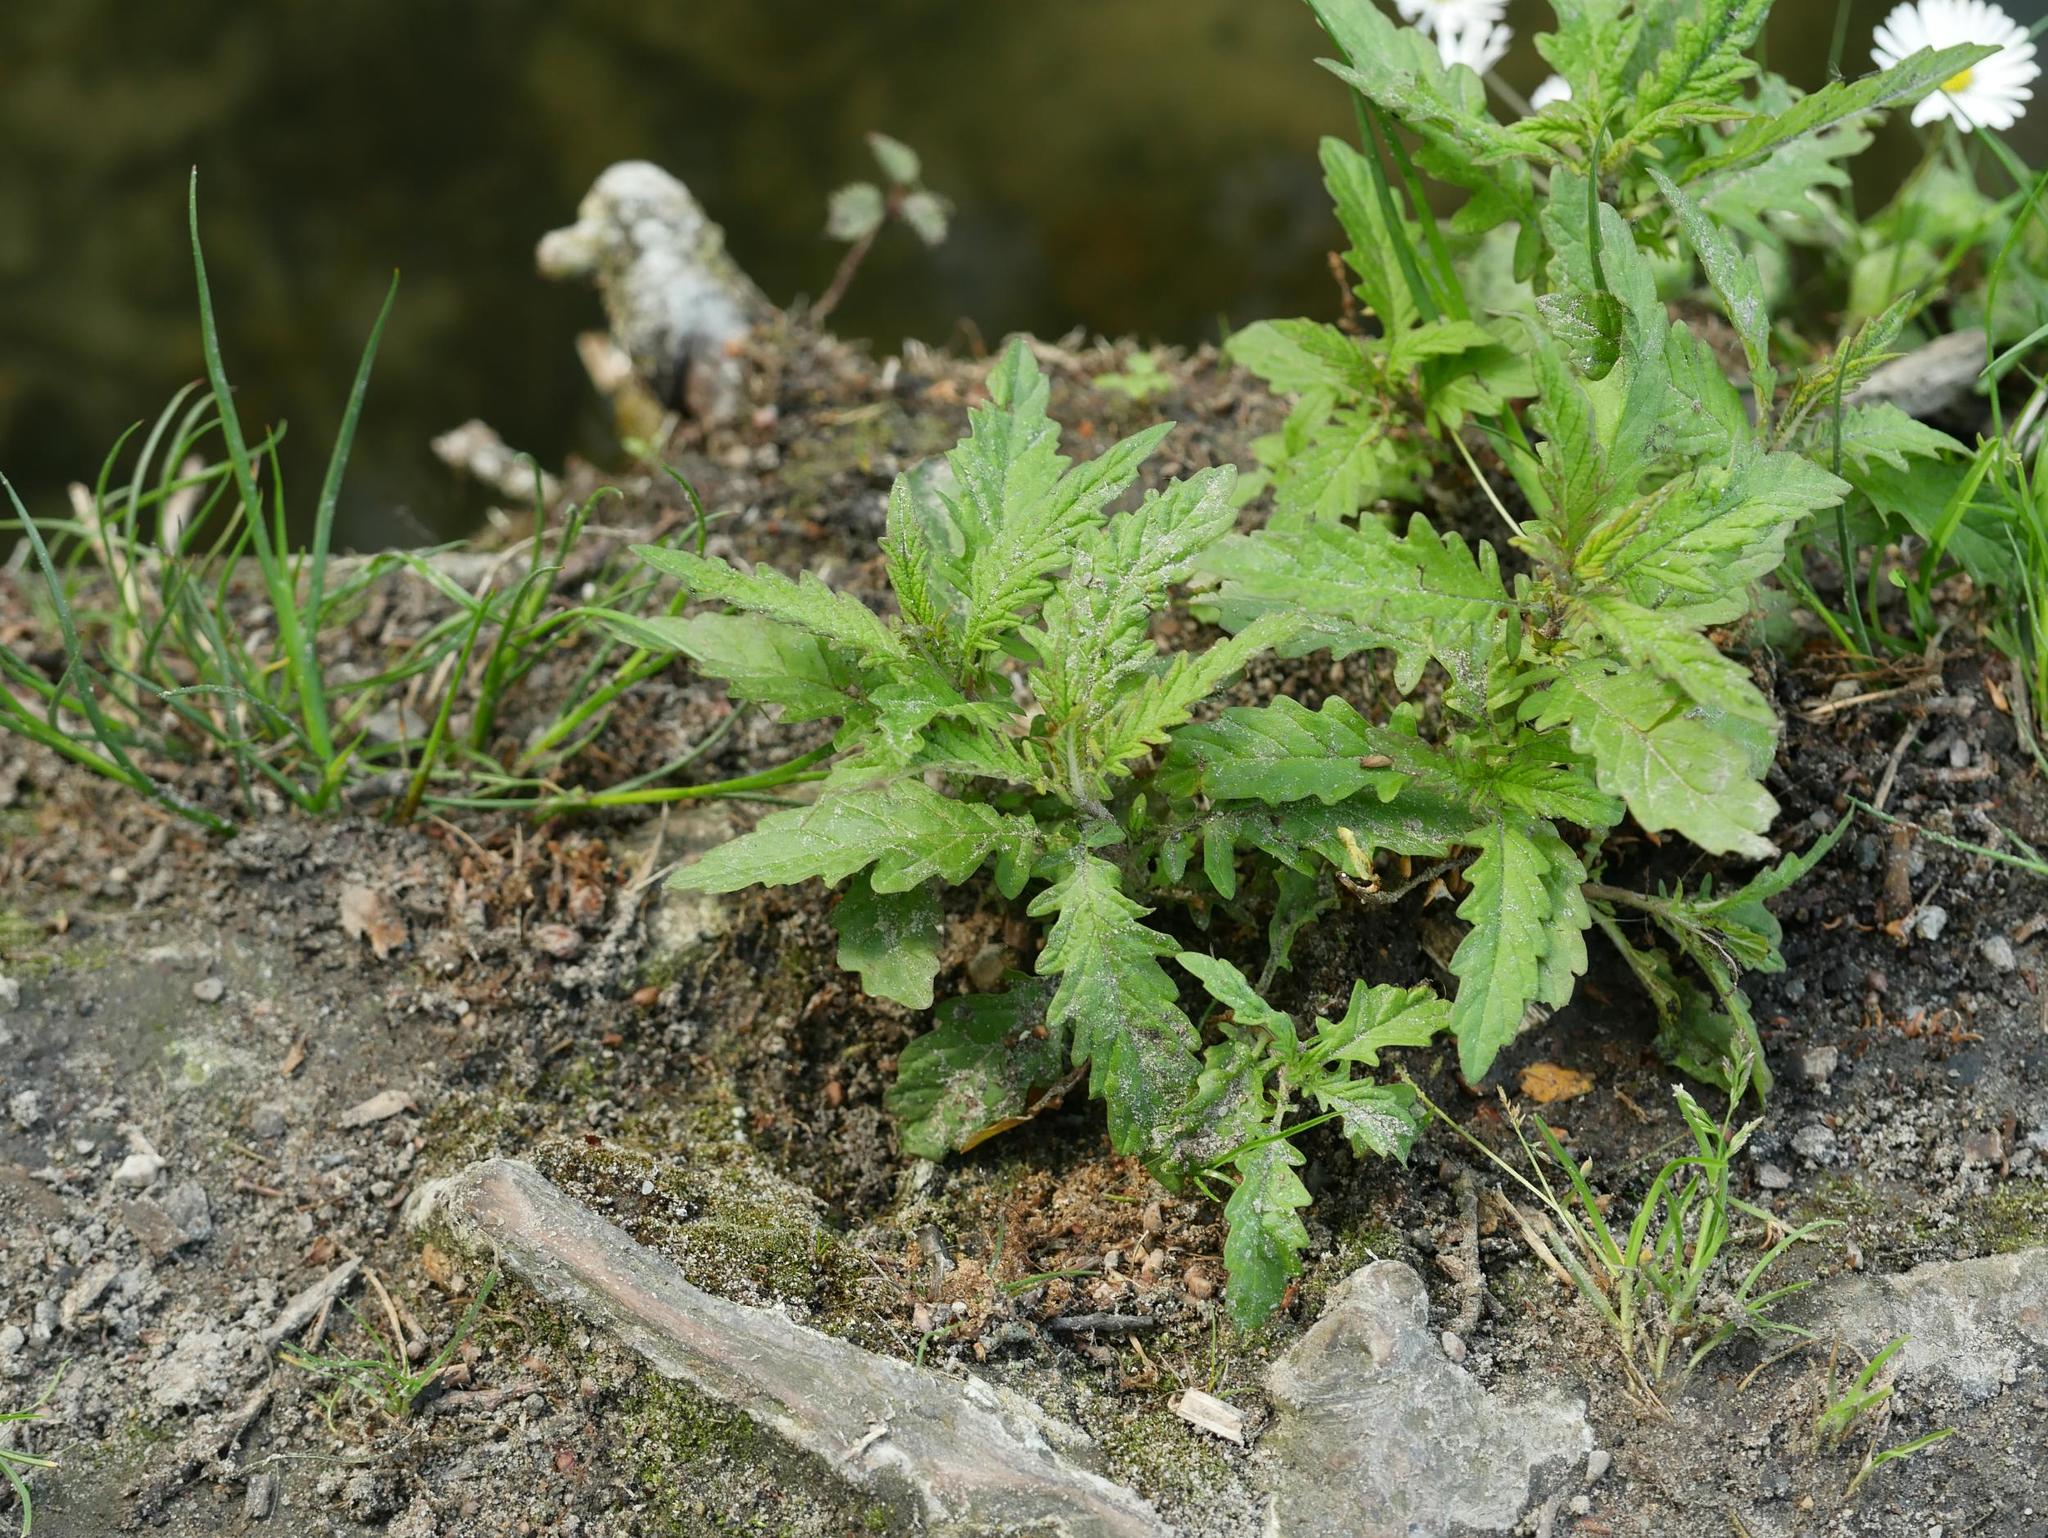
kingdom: Plantae
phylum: Tracheophyta
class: Magnoliopsida
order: Lamiales
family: Lamiaceae
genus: Lycopus
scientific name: Lycopus europaeus
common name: European bugleweed
